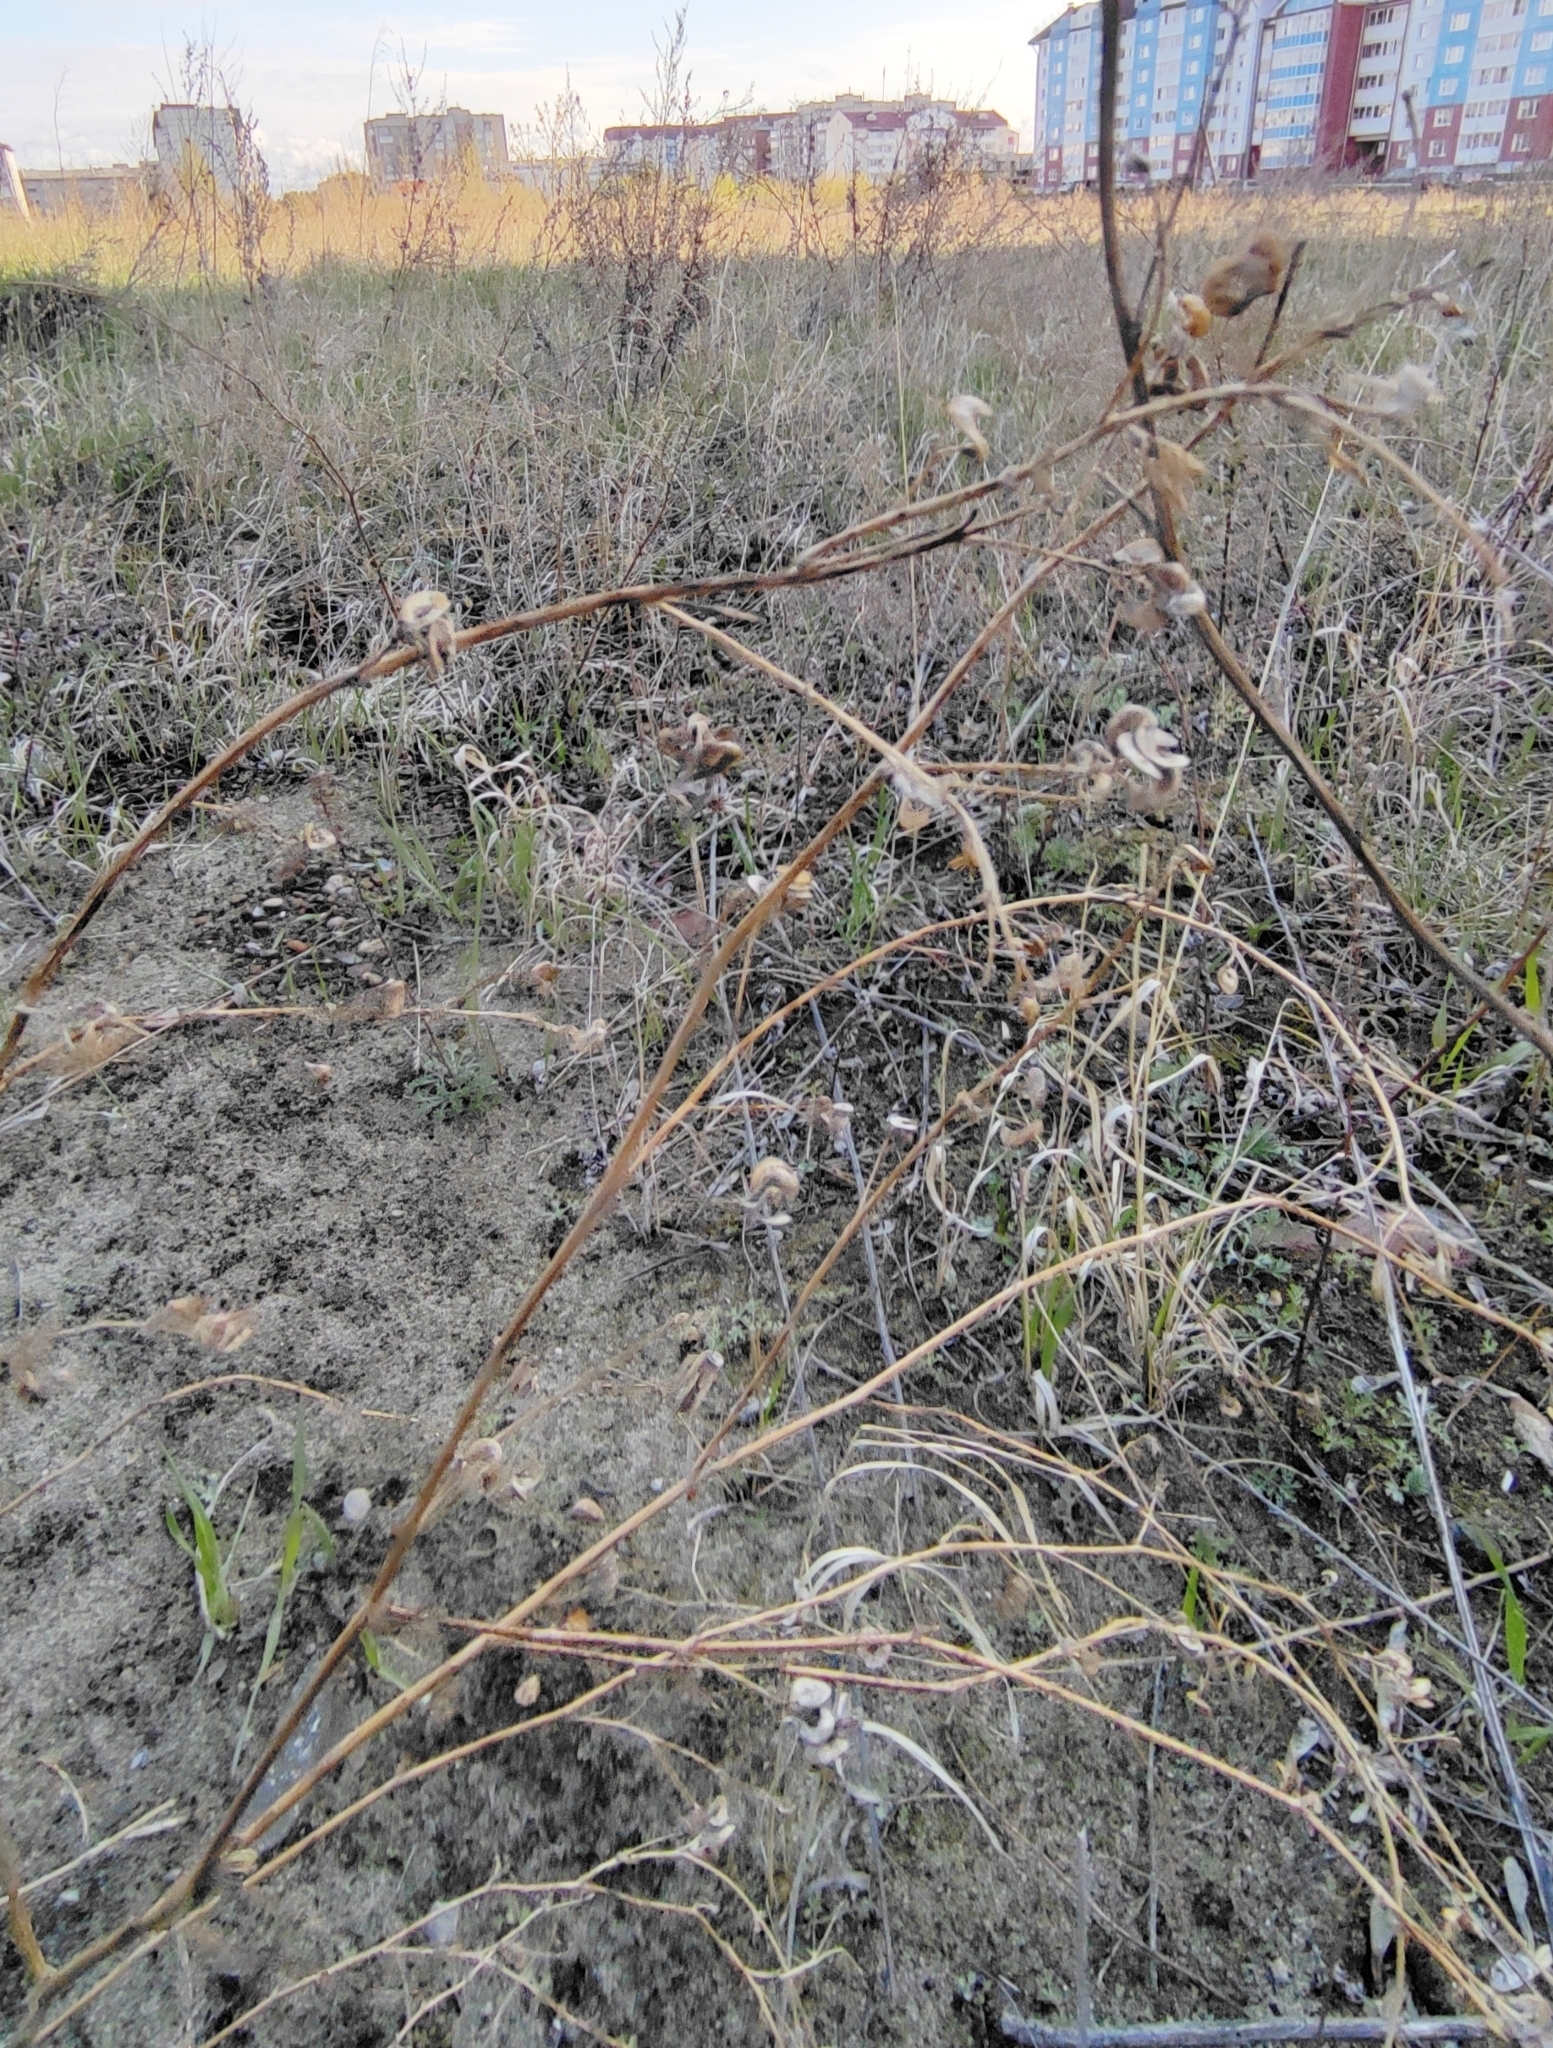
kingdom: Plantae
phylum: Tracheophyta
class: Magnoliopsida
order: Fabales
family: Fabaceae
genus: Medicago
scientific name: Medicago falcata
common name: Sickle medick
